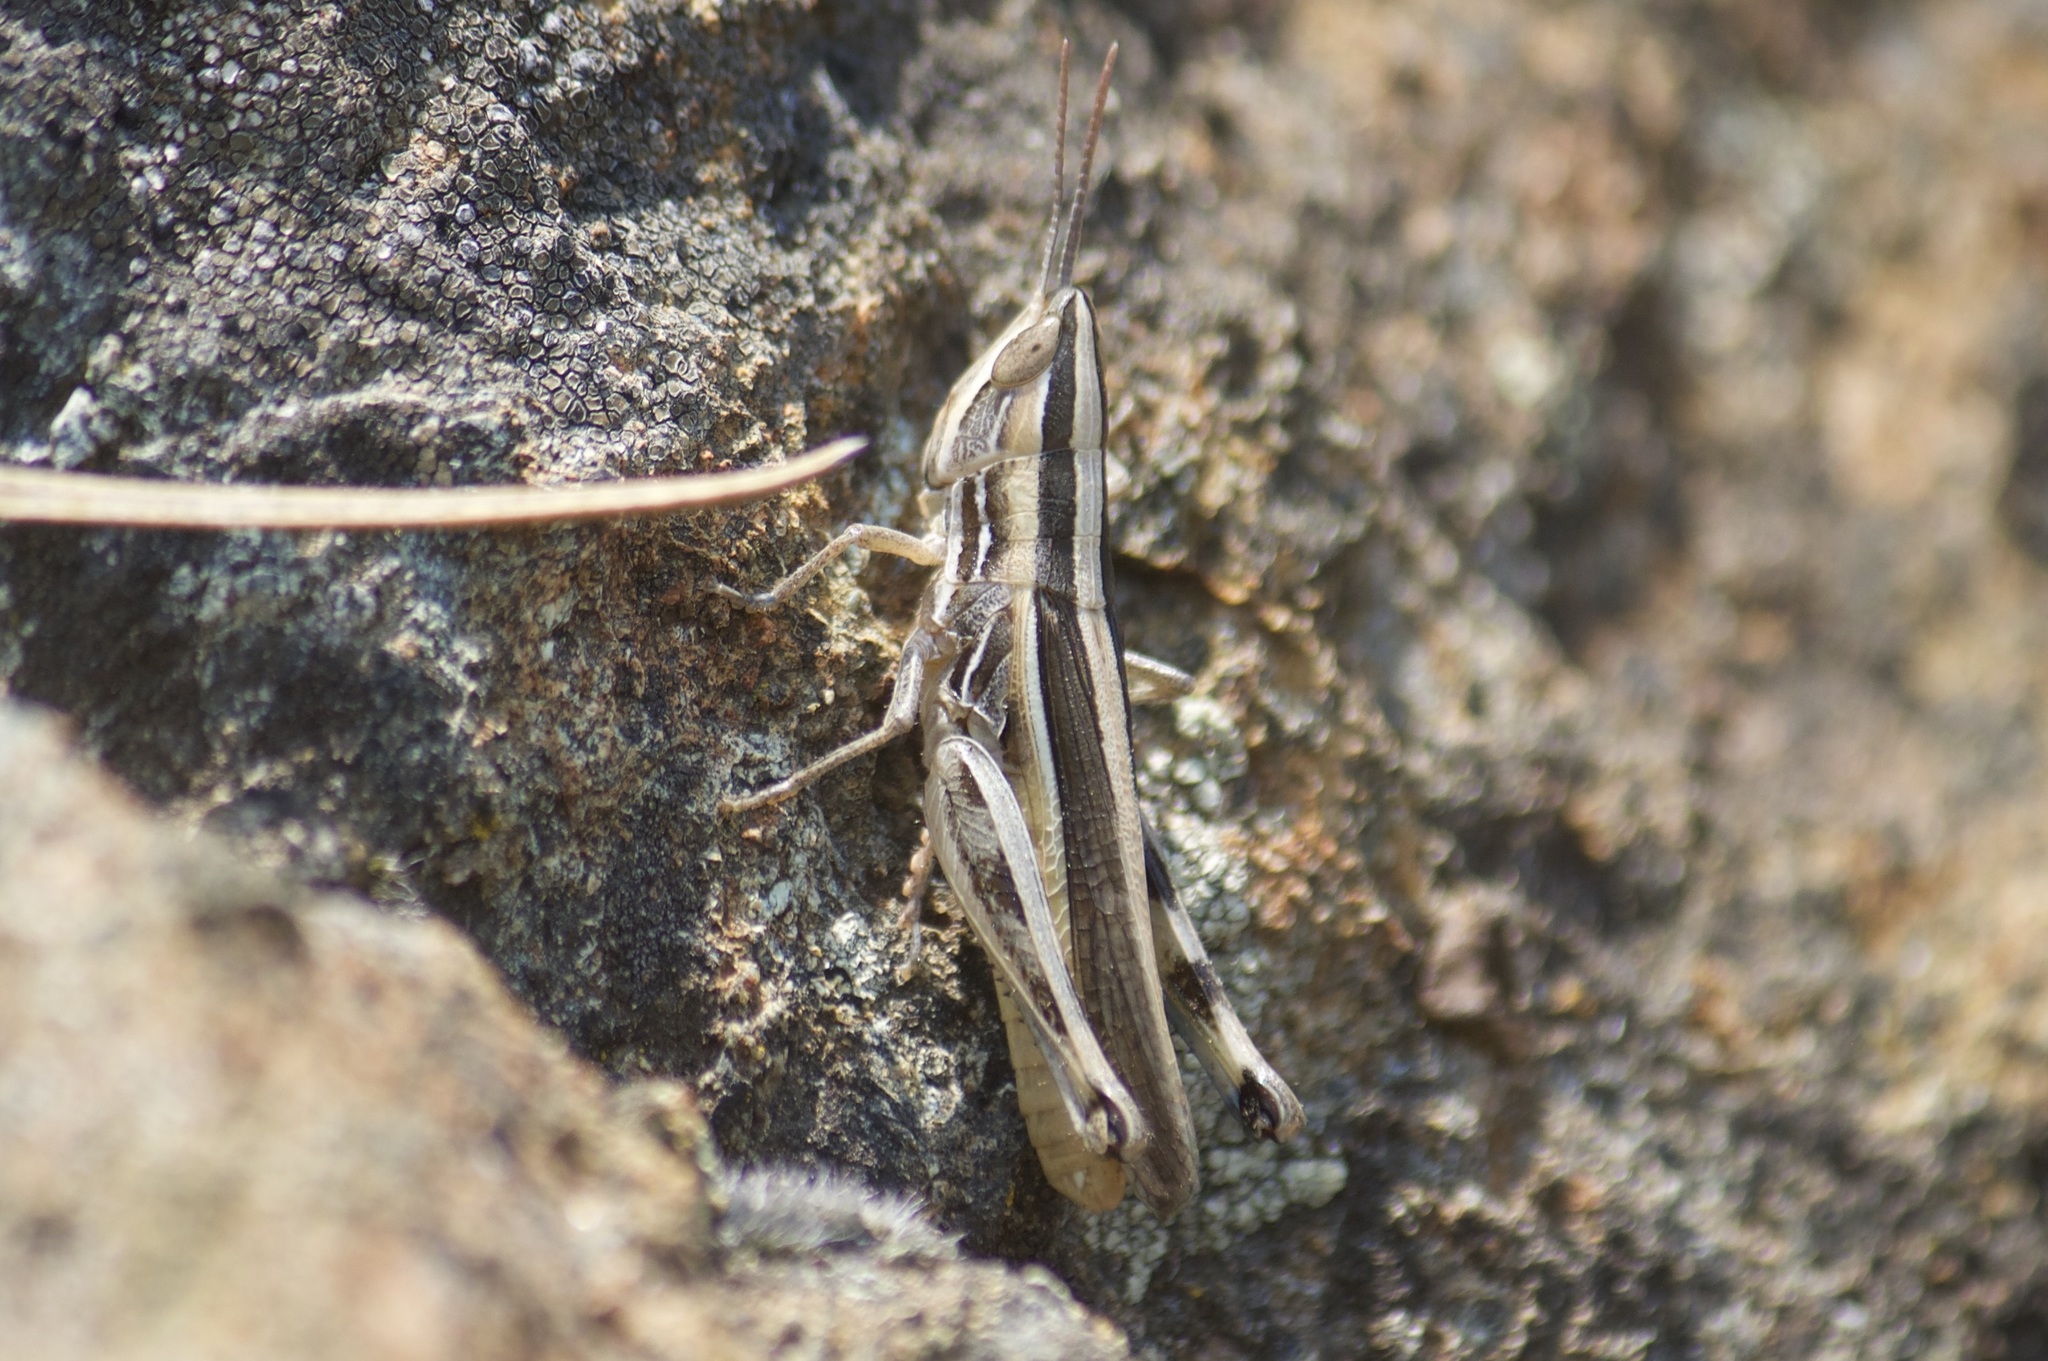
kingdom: Animalia
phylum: Arthropoda
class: Insecta
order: Orthoptera
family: Acrididae
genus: Amphitornus
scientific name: Amphitornus coloradus
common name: Striped grasshopper
